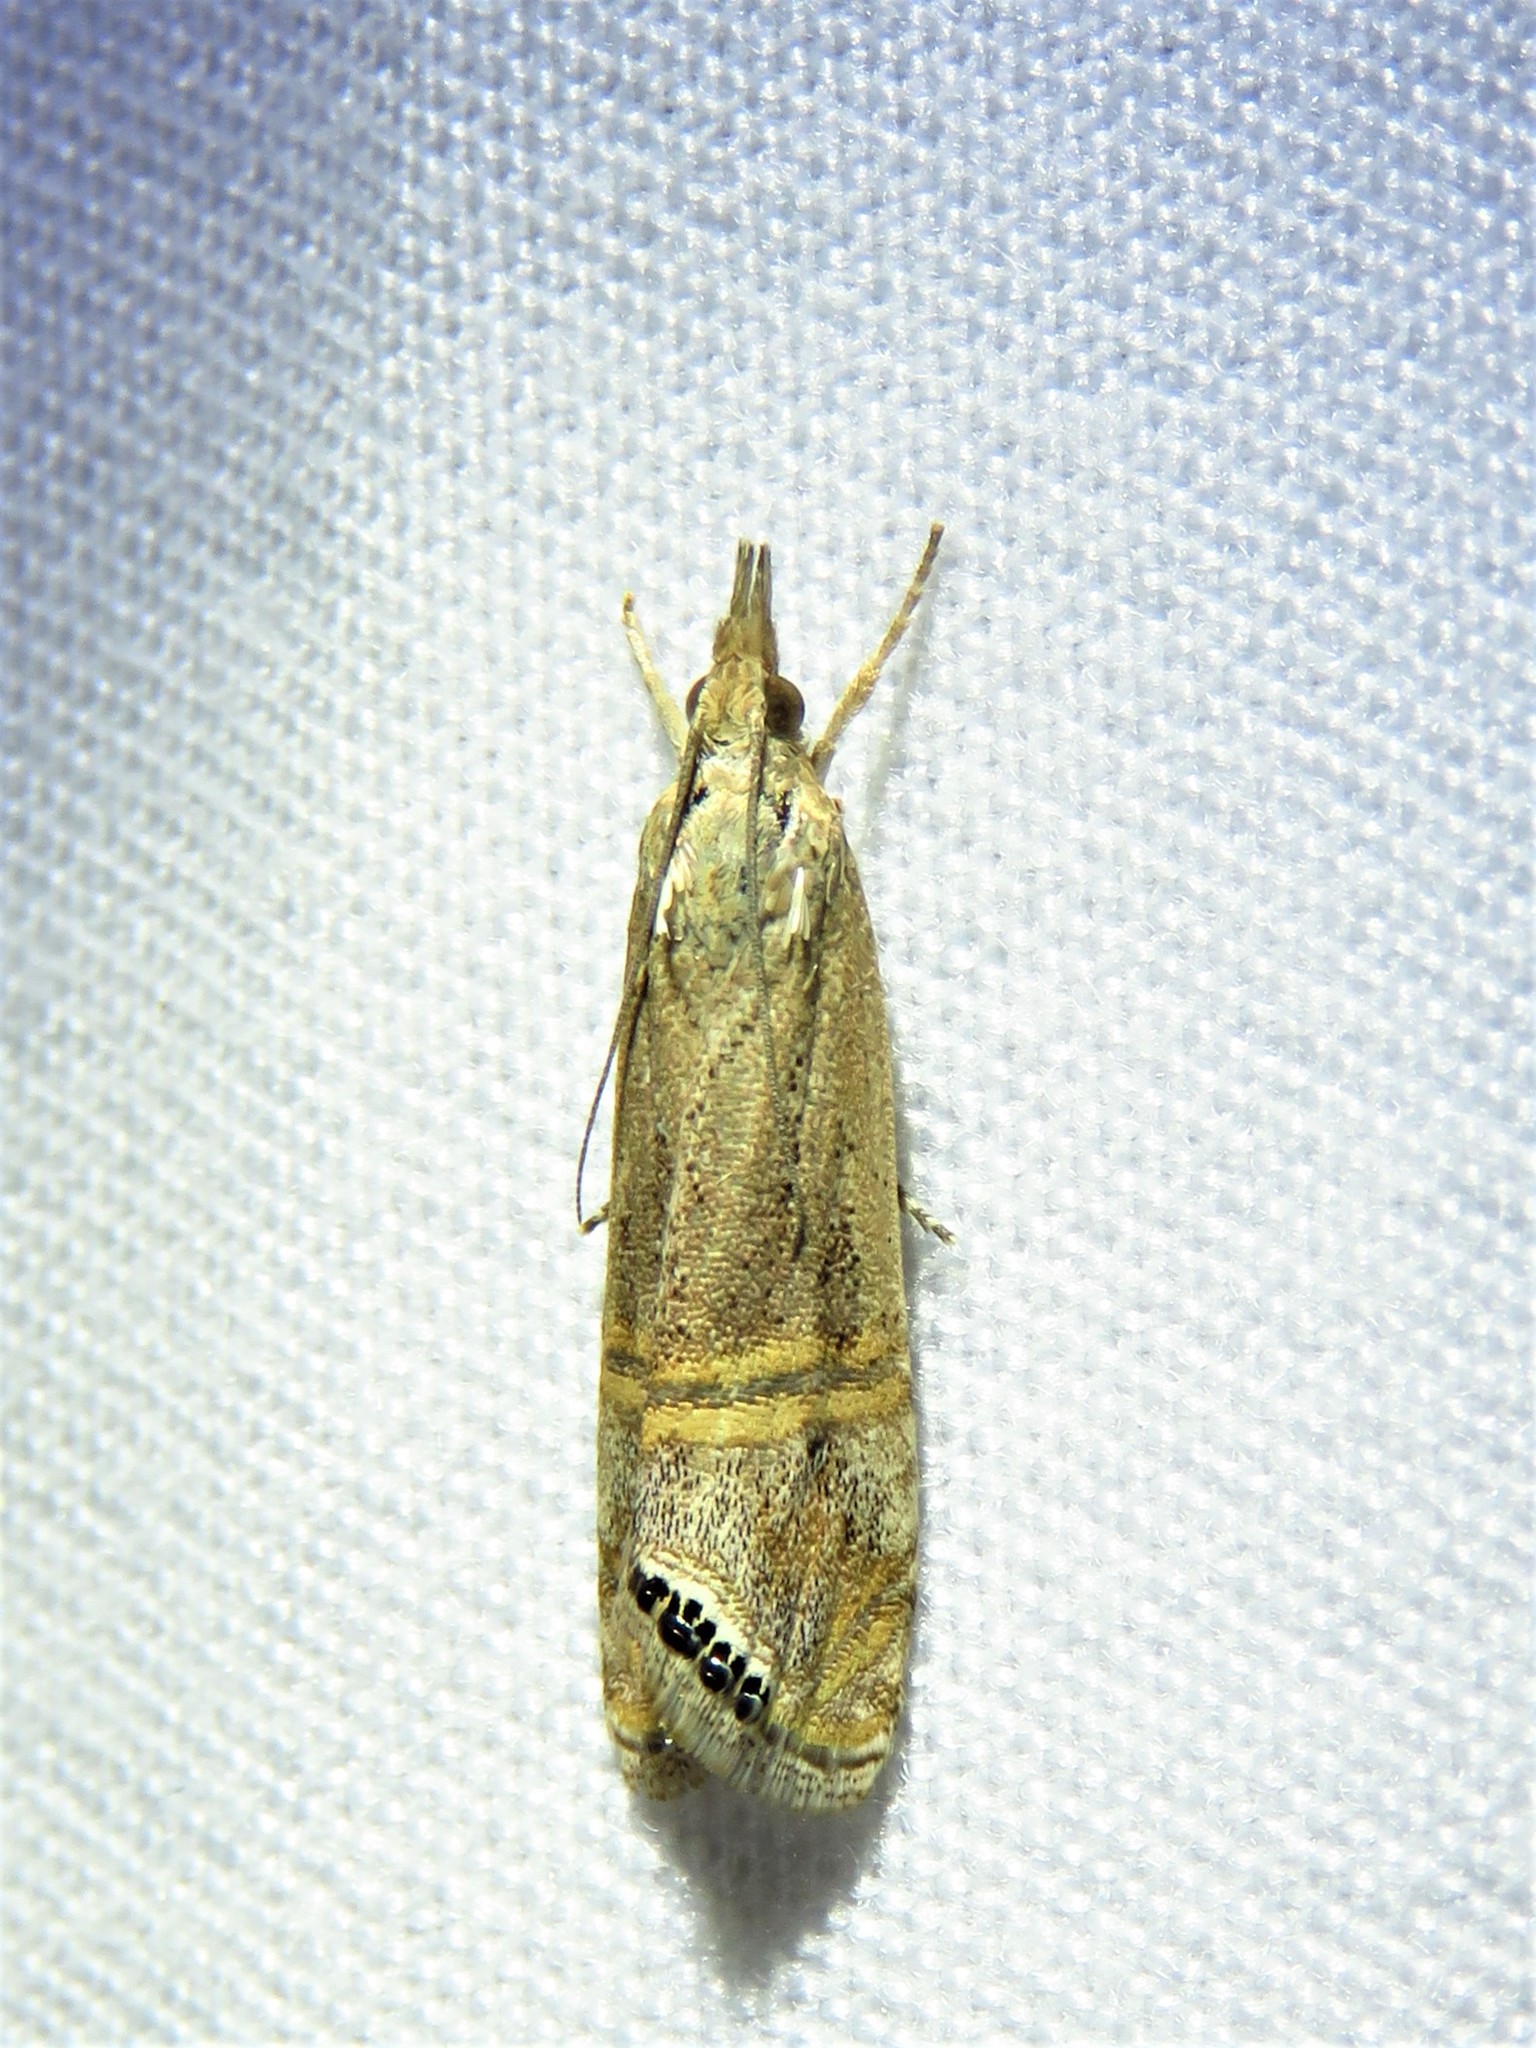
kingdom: Animalia
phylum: Arthropoda
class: Insecta
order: Lepidoptera
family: Crambidae
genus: Euchromius
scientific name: Euchromius ocellea
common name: Necklace veneer moth
